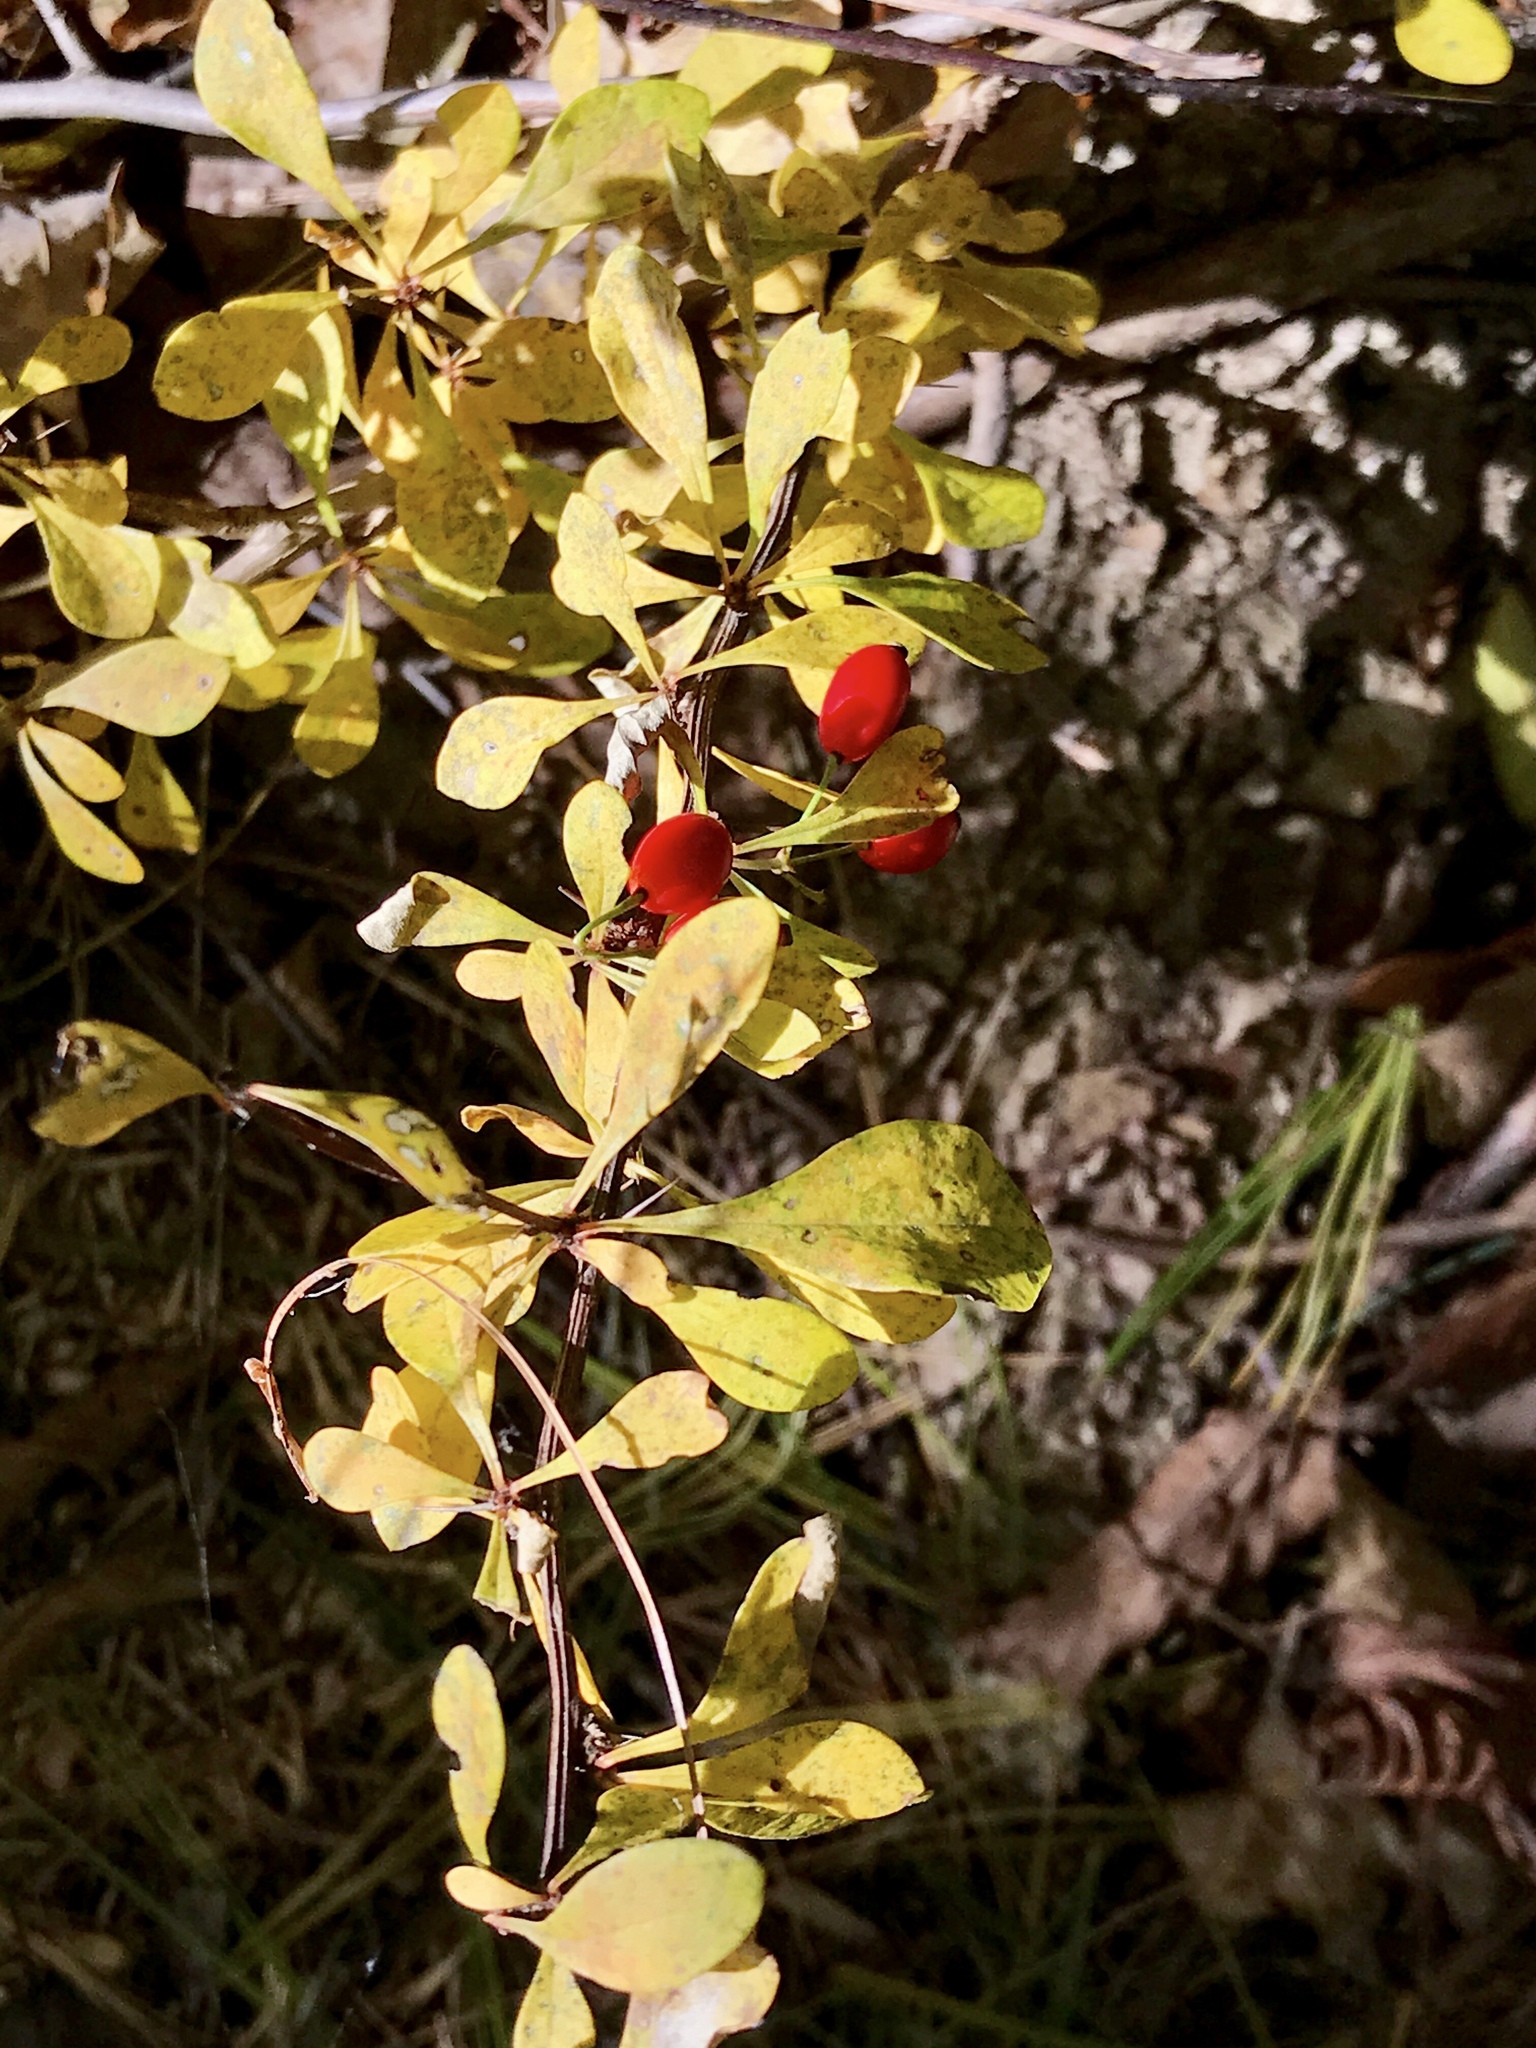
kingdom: Plantae
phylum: Tracheophyta
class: Magnoliopsida
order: Ranunculales
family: Berberidaceae
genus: Berberis
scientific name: Berberis thunbergii
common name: Japanese barberry
